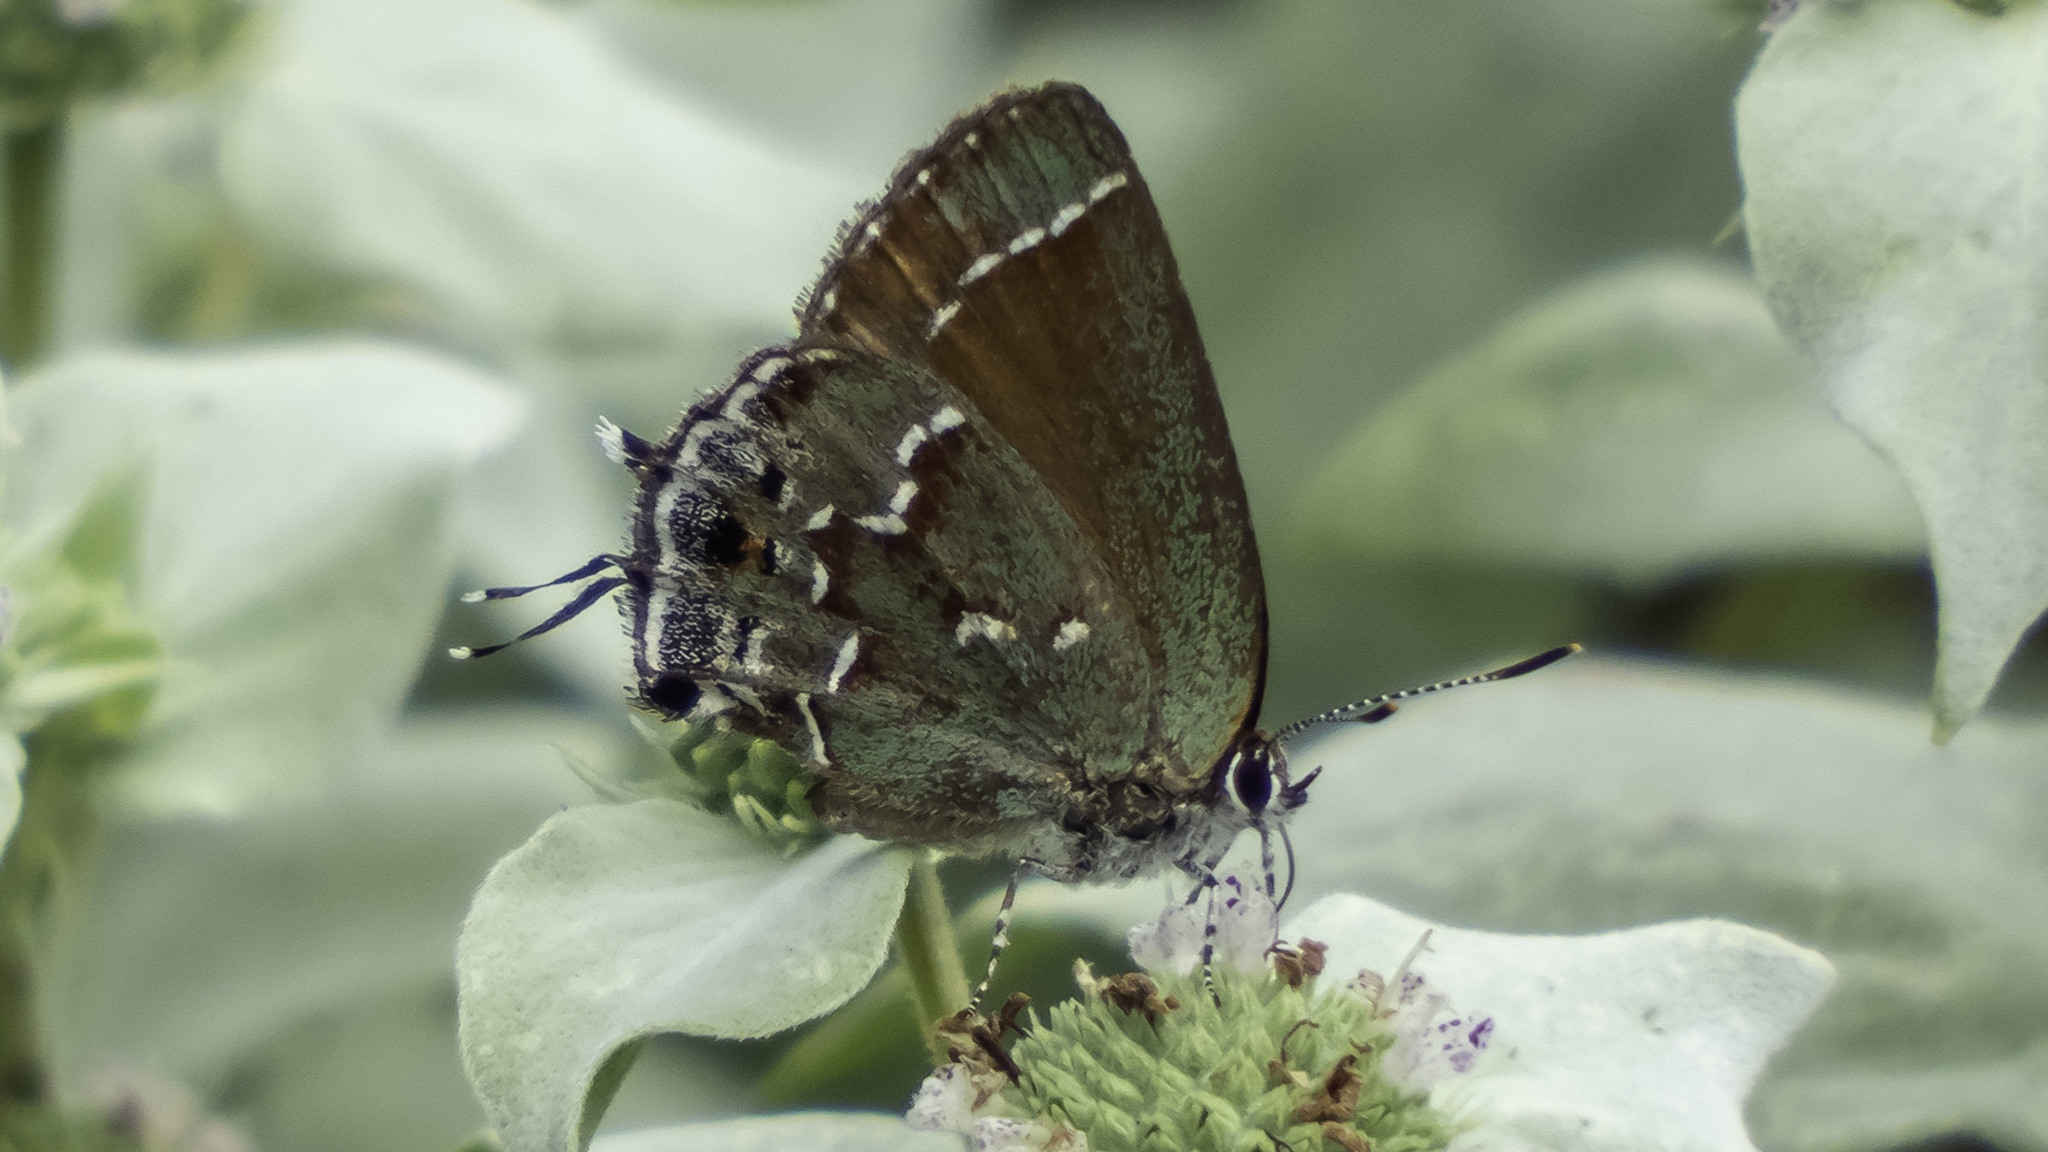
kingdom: Animalia
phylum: Arthropoda
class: Insecta
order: Lepidoptera
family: Lycaenidae
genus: Mitoura
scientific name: Mitoura gryneus
